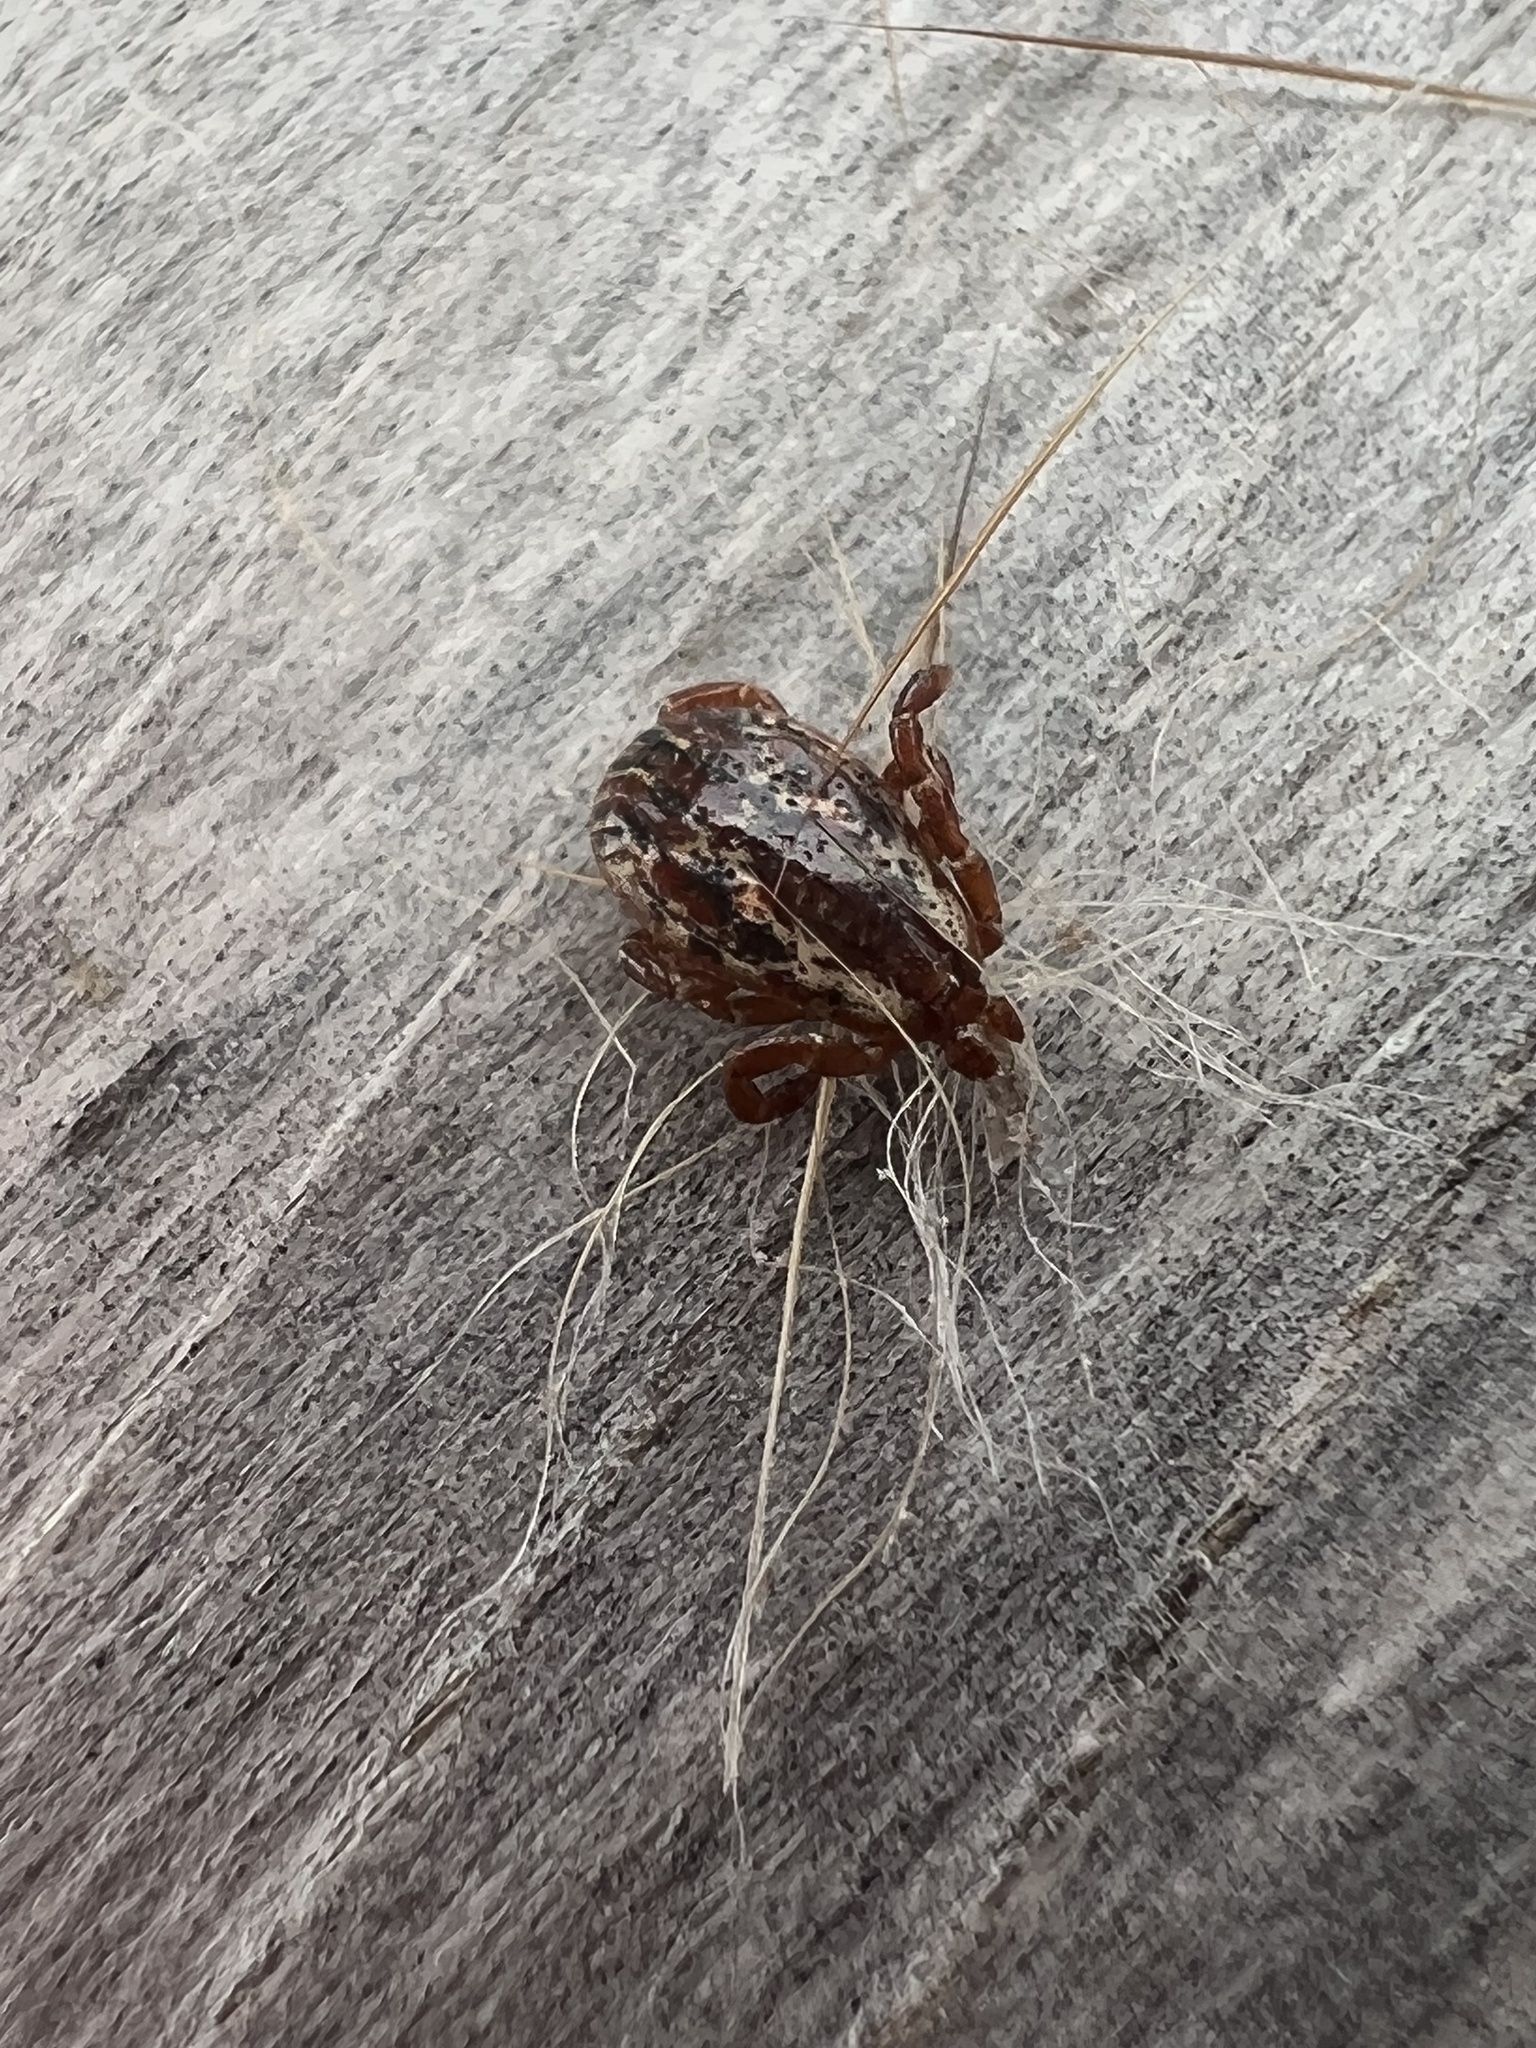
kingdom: Animalia
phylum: Arthropoda
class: Arachnida
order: Ixodida
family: Ixodidae
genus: Dermacentor
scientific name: Dermacentor variabilis
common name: American dog tick
